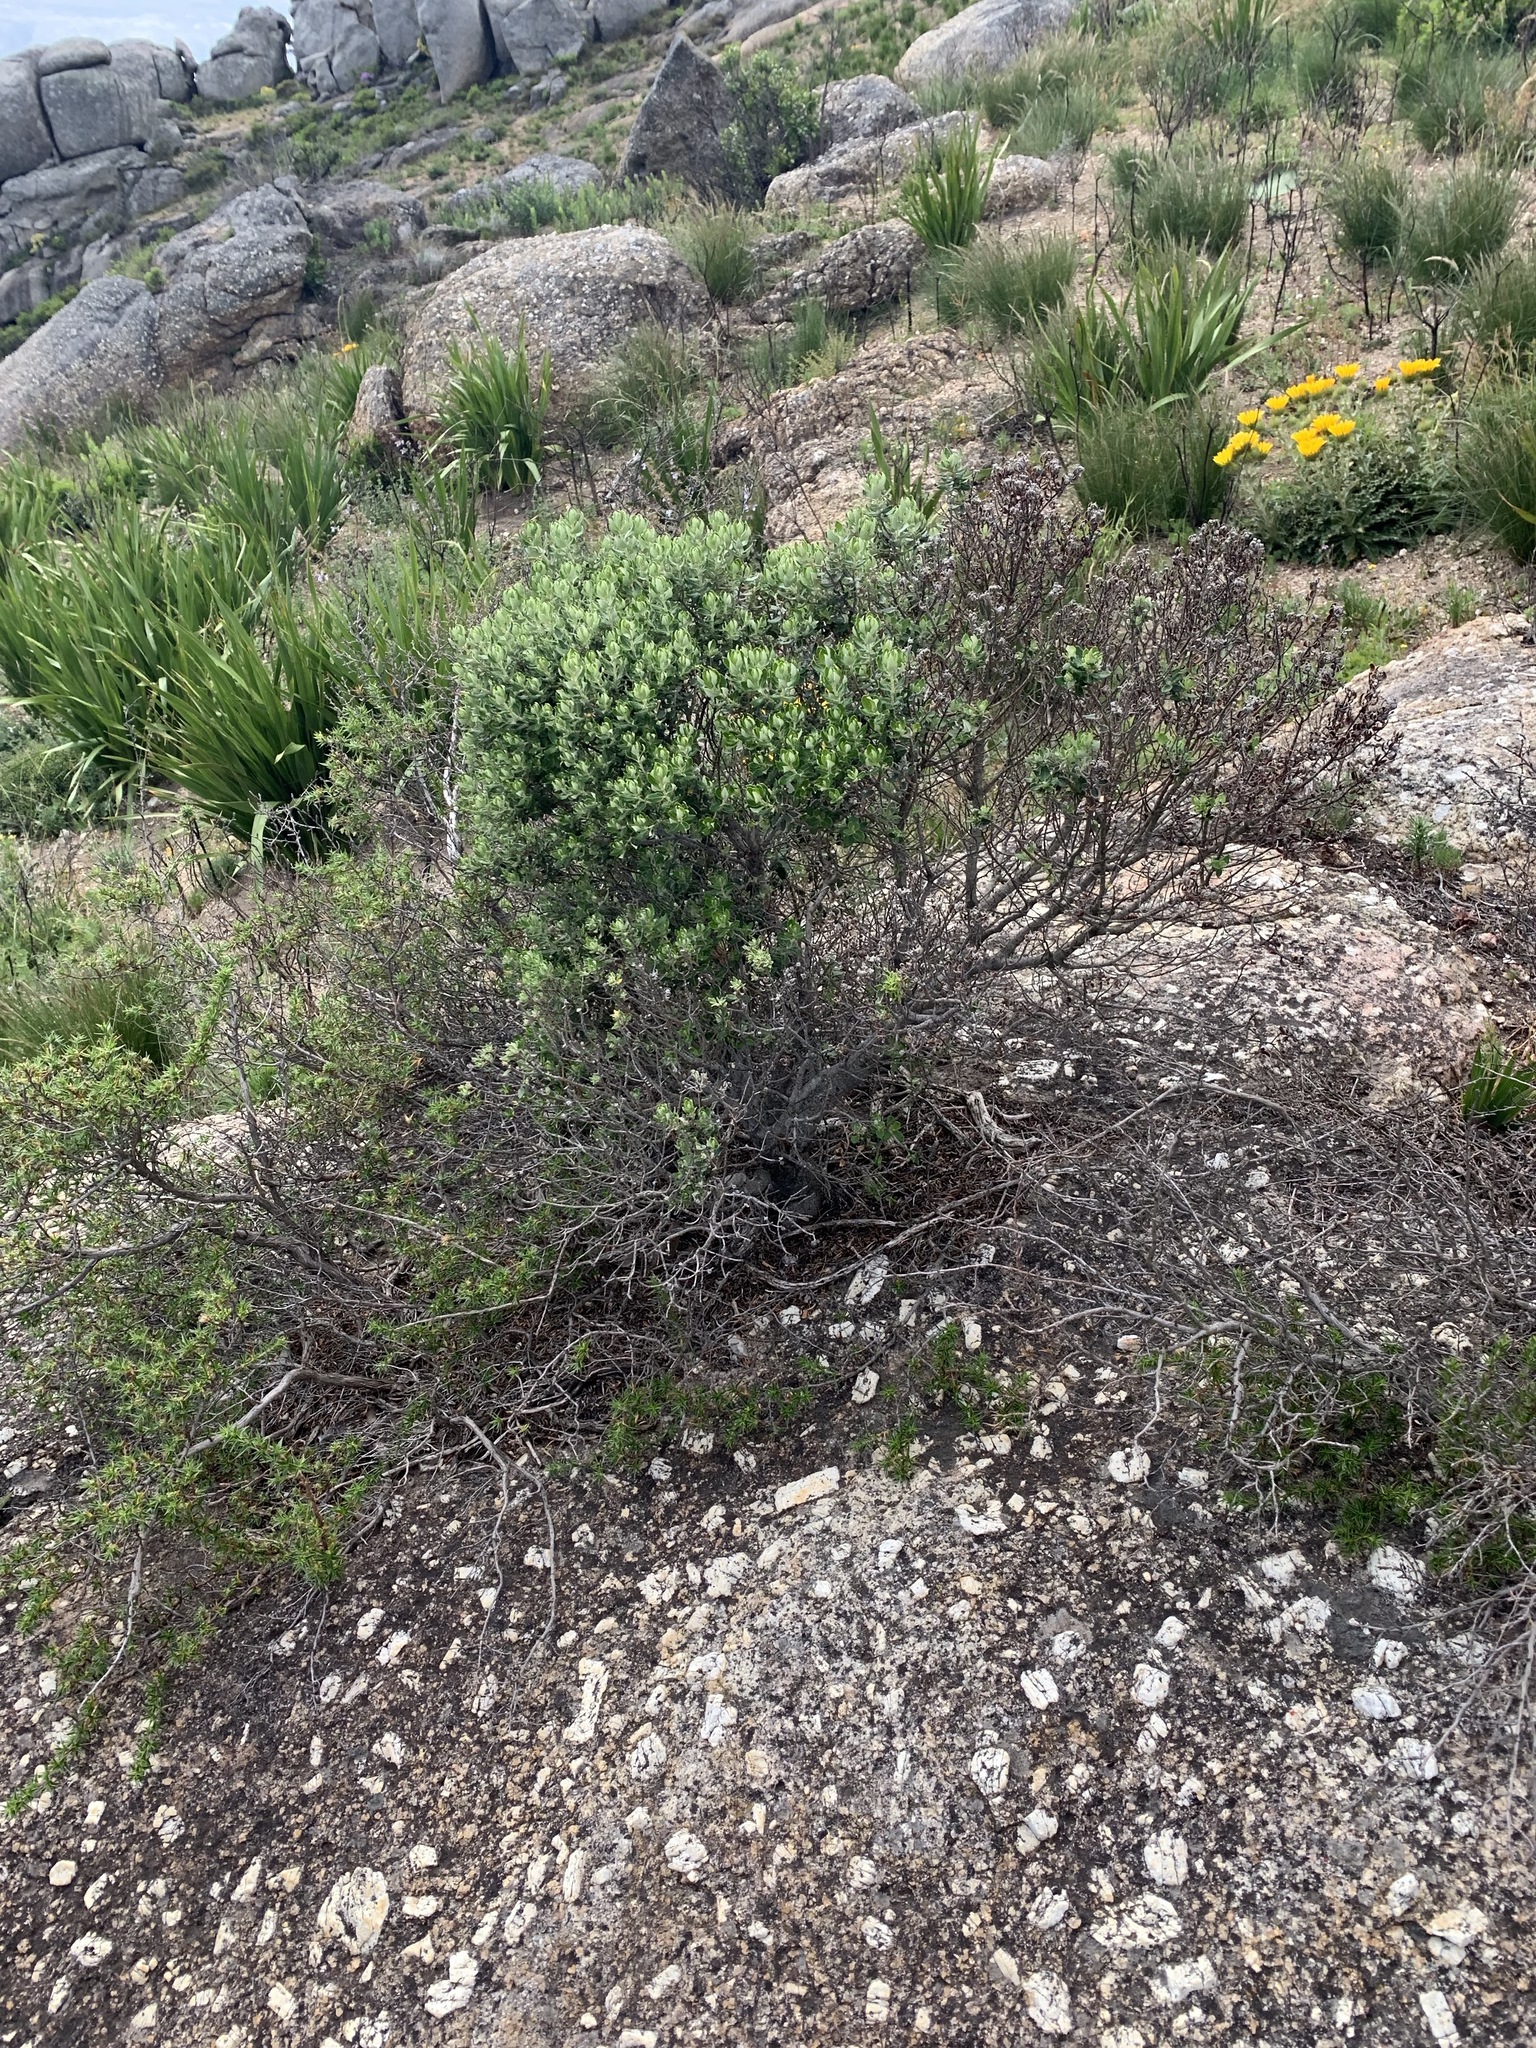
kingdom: Plantae
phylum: Tracheophyta
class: Magnoliopsida
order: Rosales
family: Rhamnaceae
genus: Phylica
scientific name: Phylica buxifolia
